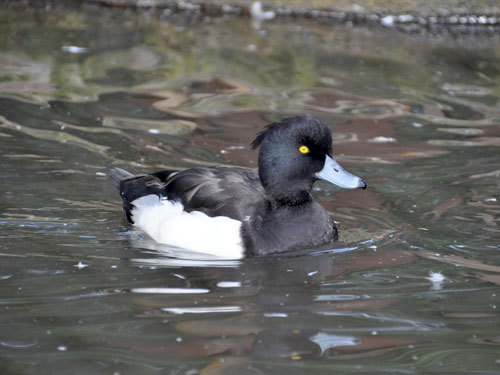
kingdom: Animalia
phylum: Chordata
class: Aves
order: Anseriformes
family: Anatidae
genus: Aythya
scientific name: Aythya fuligula
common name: Tufted duck
